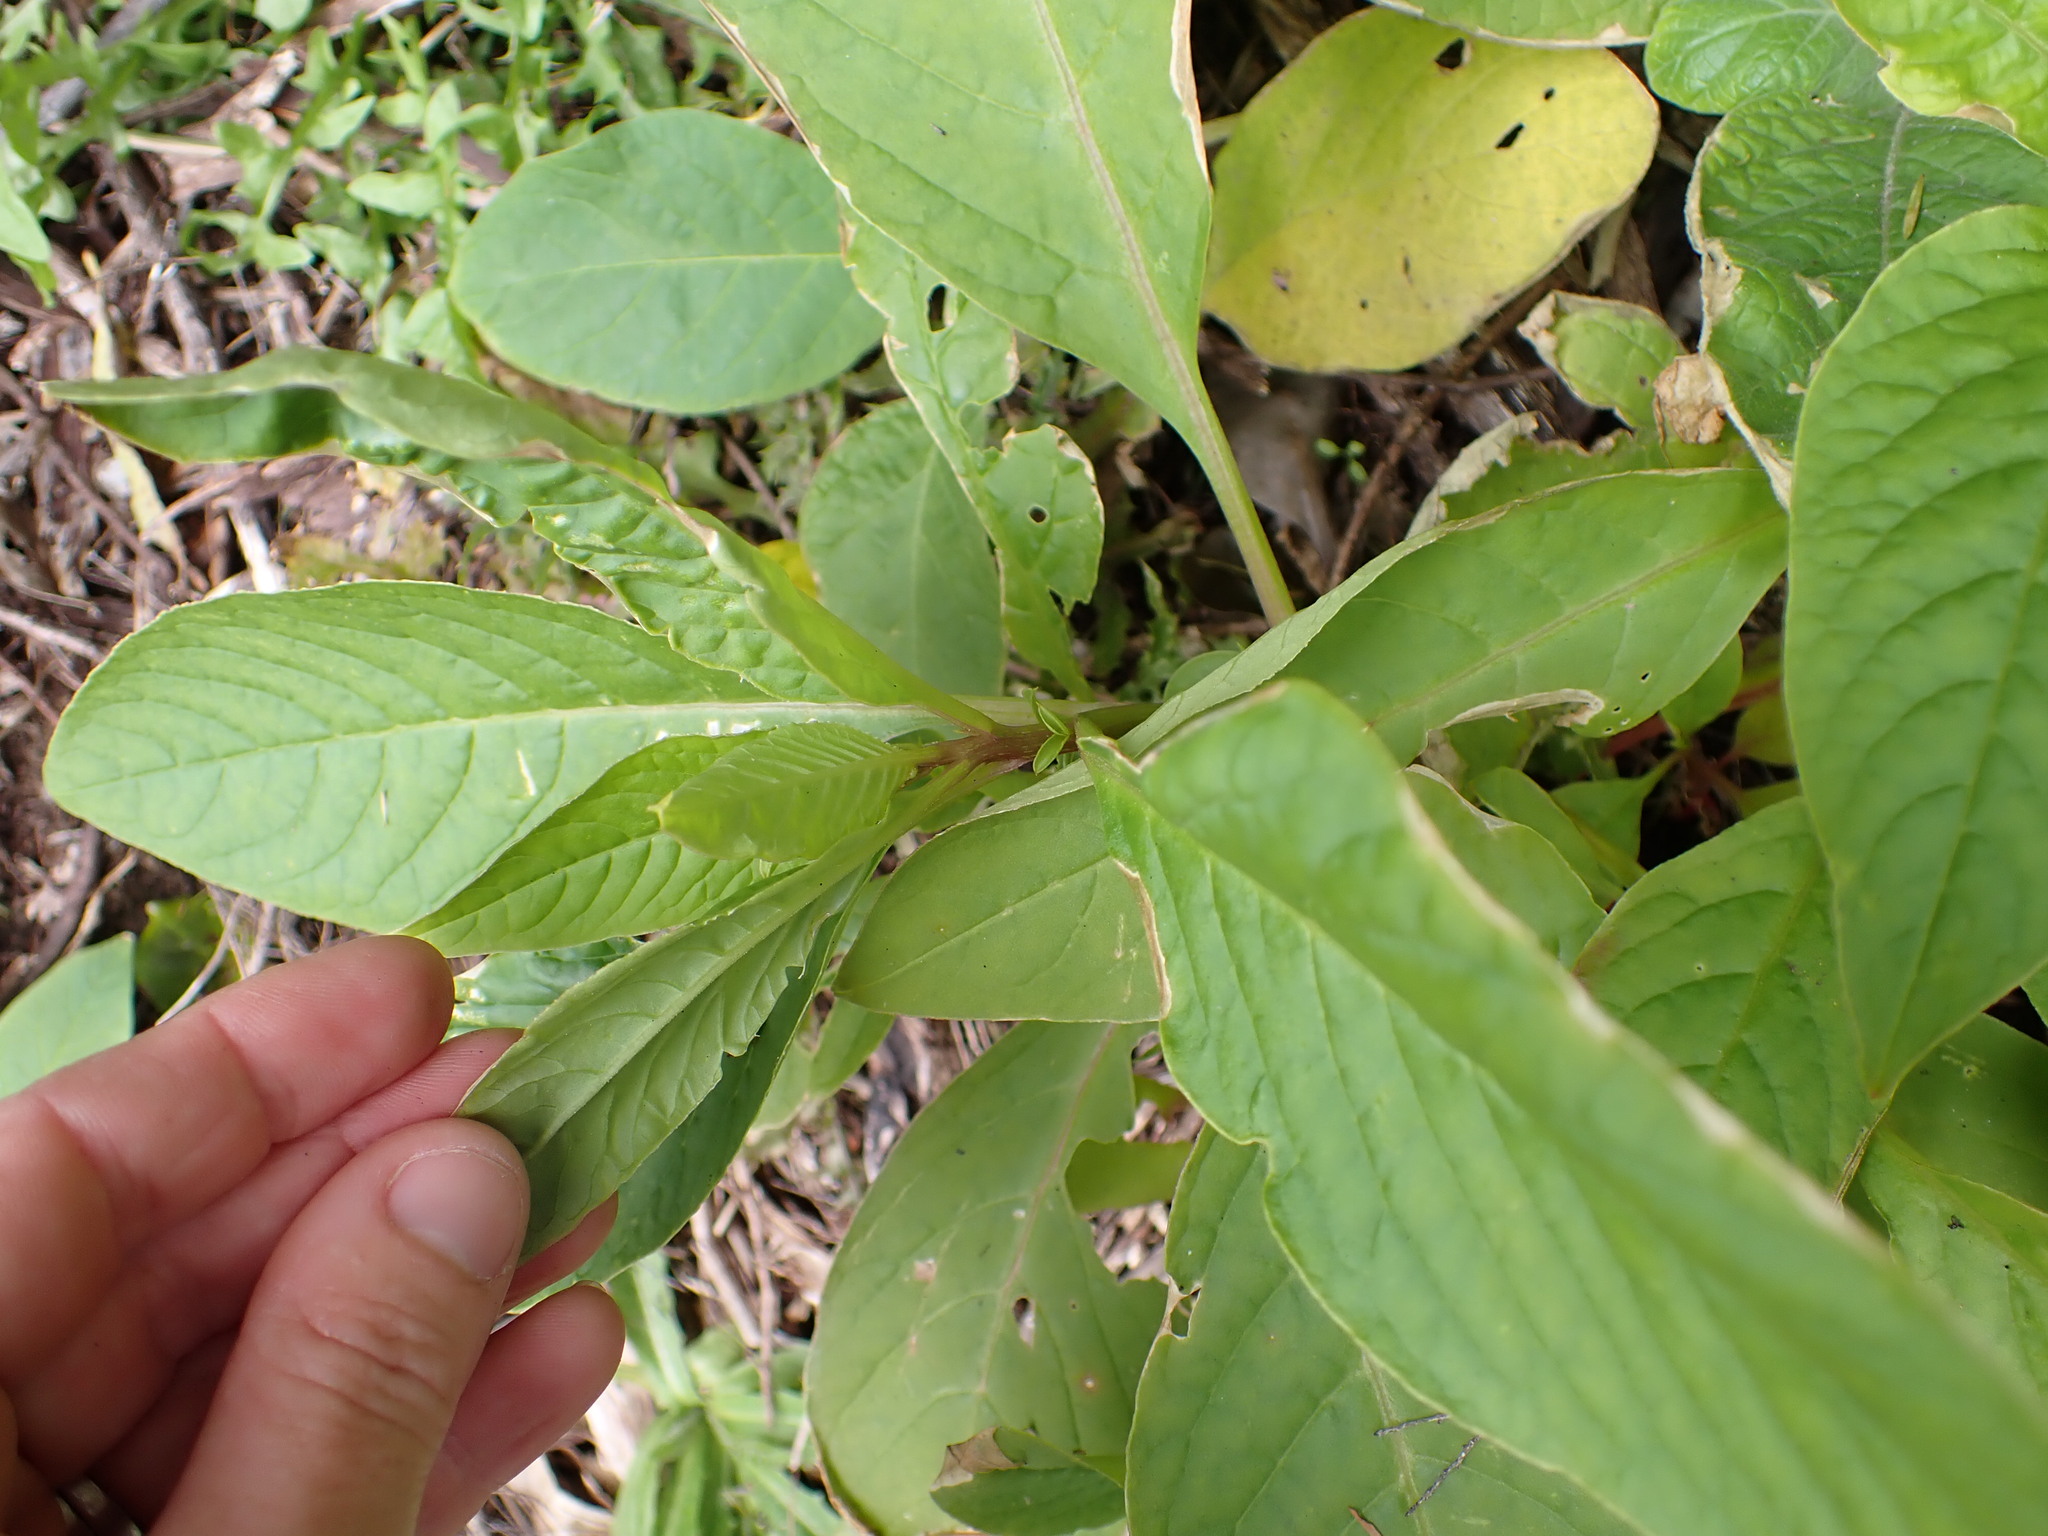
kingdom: Plantae
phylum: Tracheophyta
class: Magnoliopsida
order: Caryophyllales
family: Phytolaccaceae
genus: Phytolacca
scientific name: Phytolacca icosandra
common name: Button pokeweed
